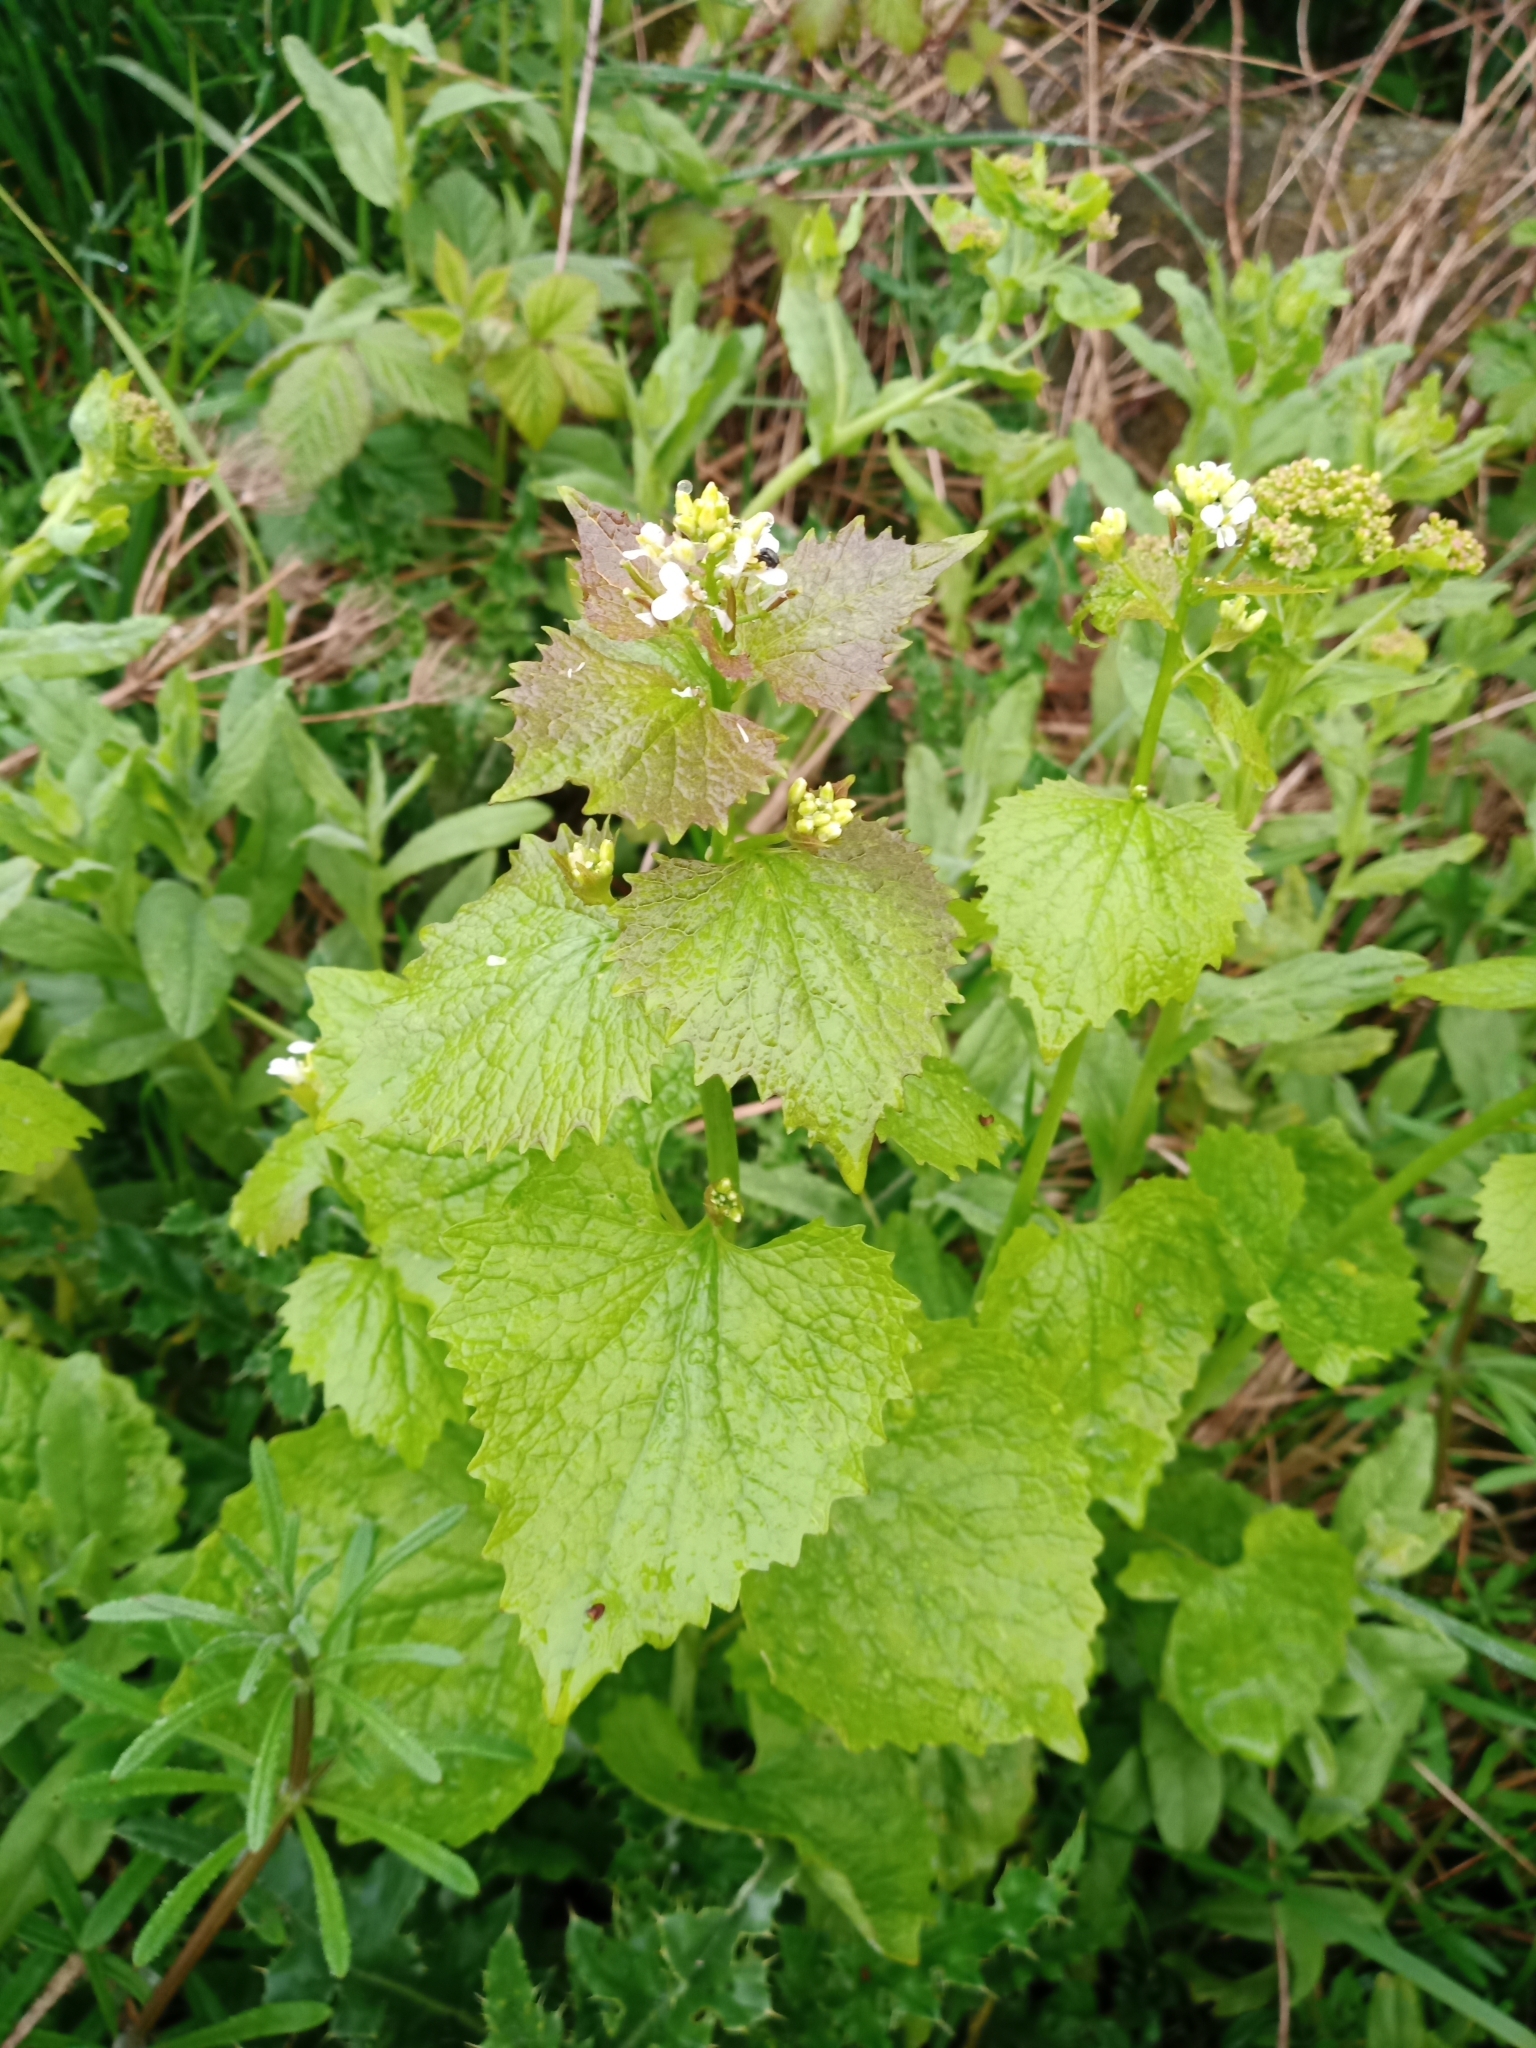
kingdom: Plantae
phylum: Tracheophyta
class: Magnoliopsida
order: Brassicales
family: Brassicaceae
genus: Alliaria
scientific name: Alliaria petiolata
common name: Garlic mustard
